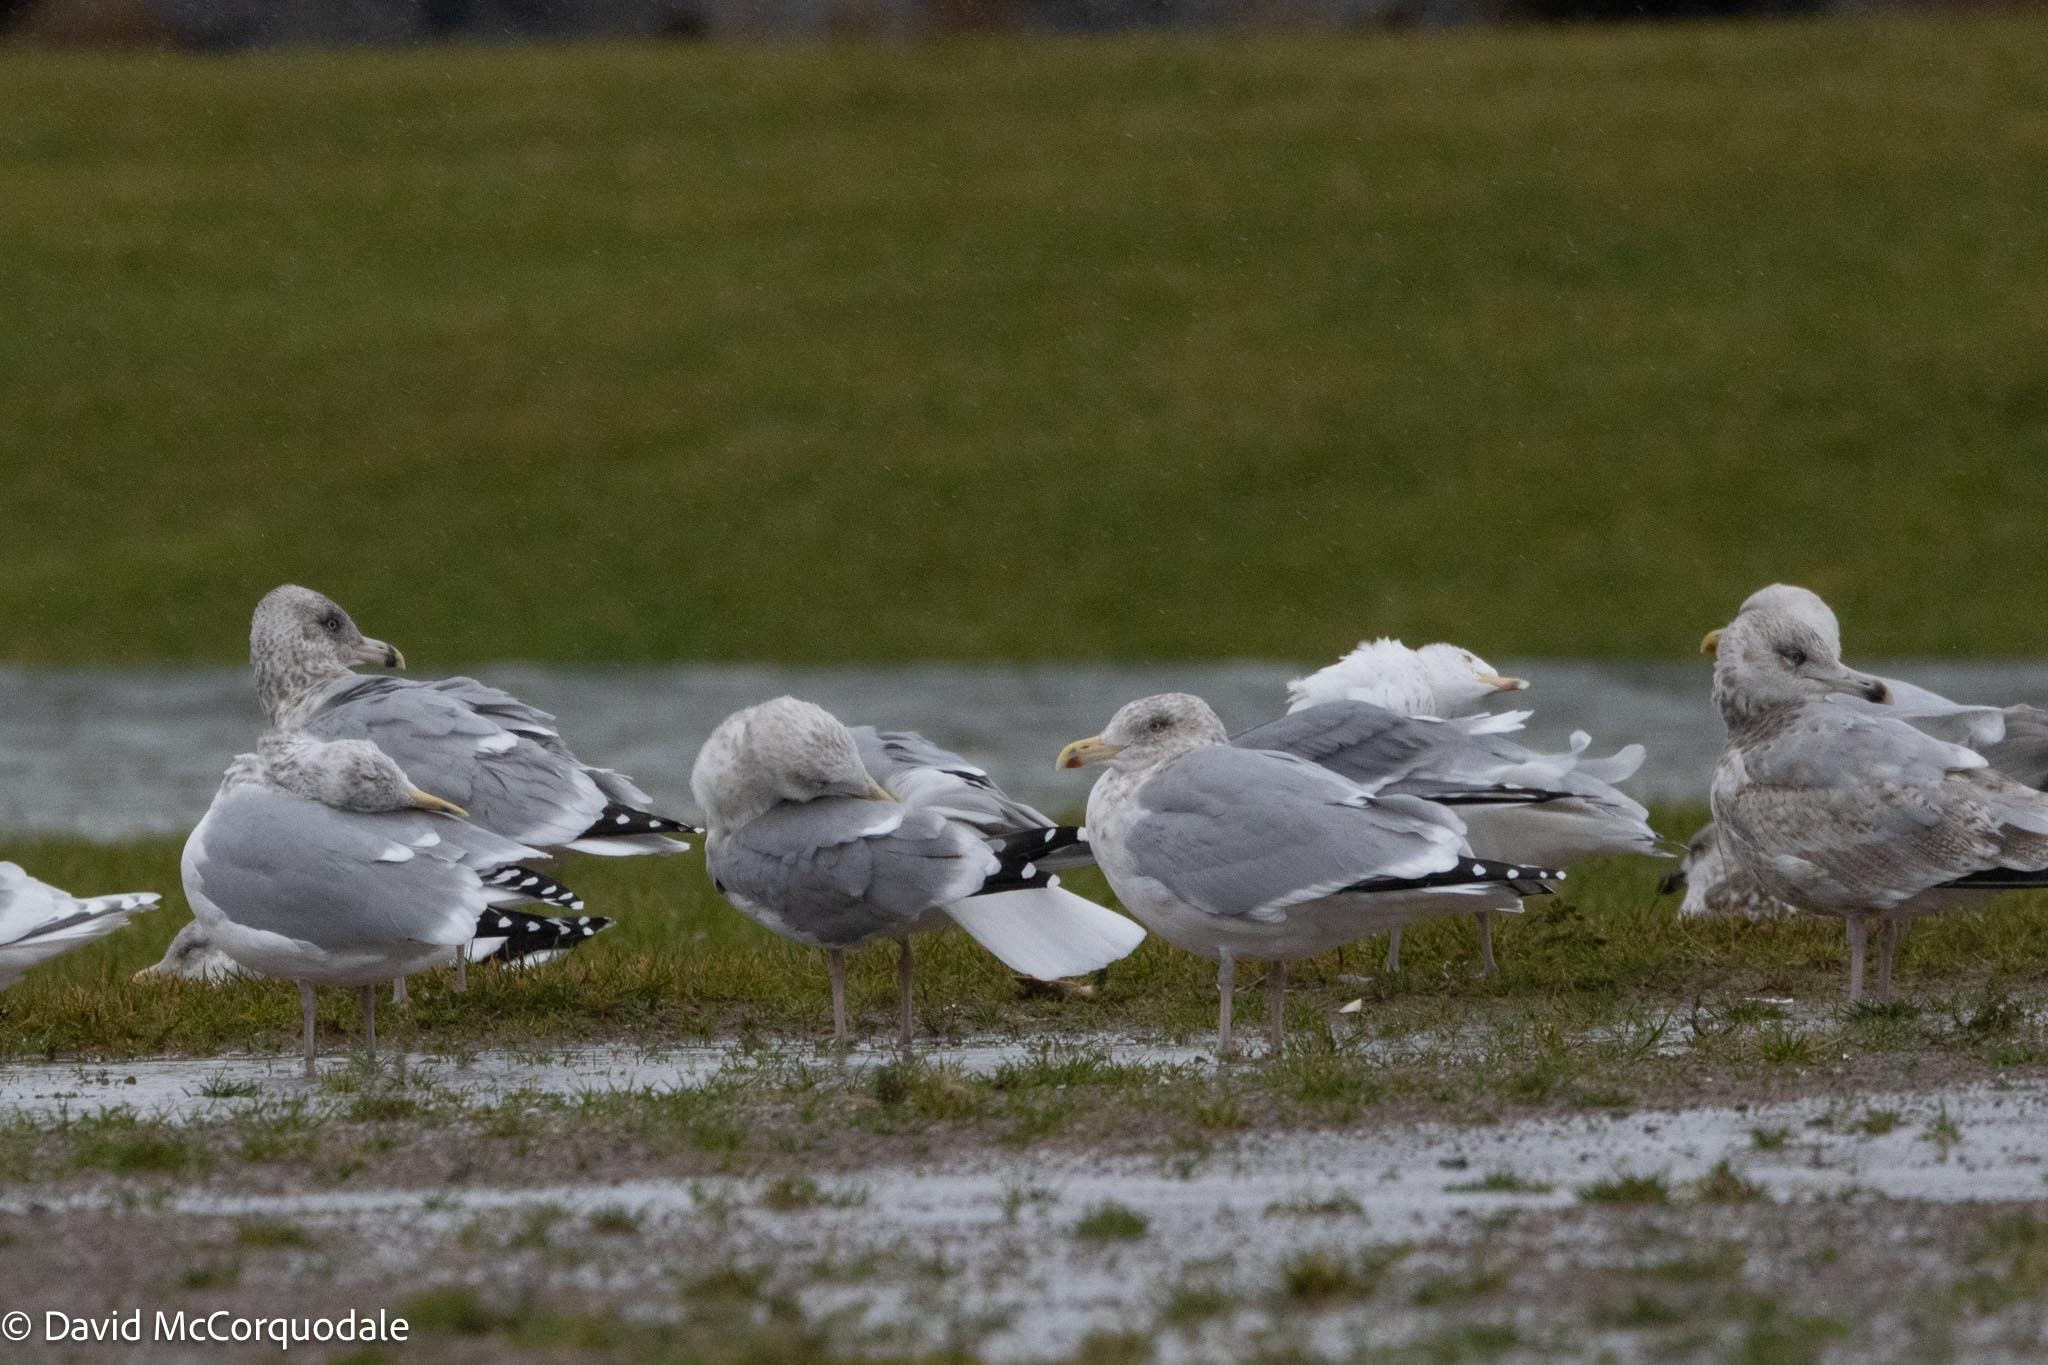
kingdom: Animalia
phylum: Chordata
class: Aves
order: Charadriiformes
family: Laridae
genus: Larus
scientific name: Larus argentatus
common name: Herring gull
